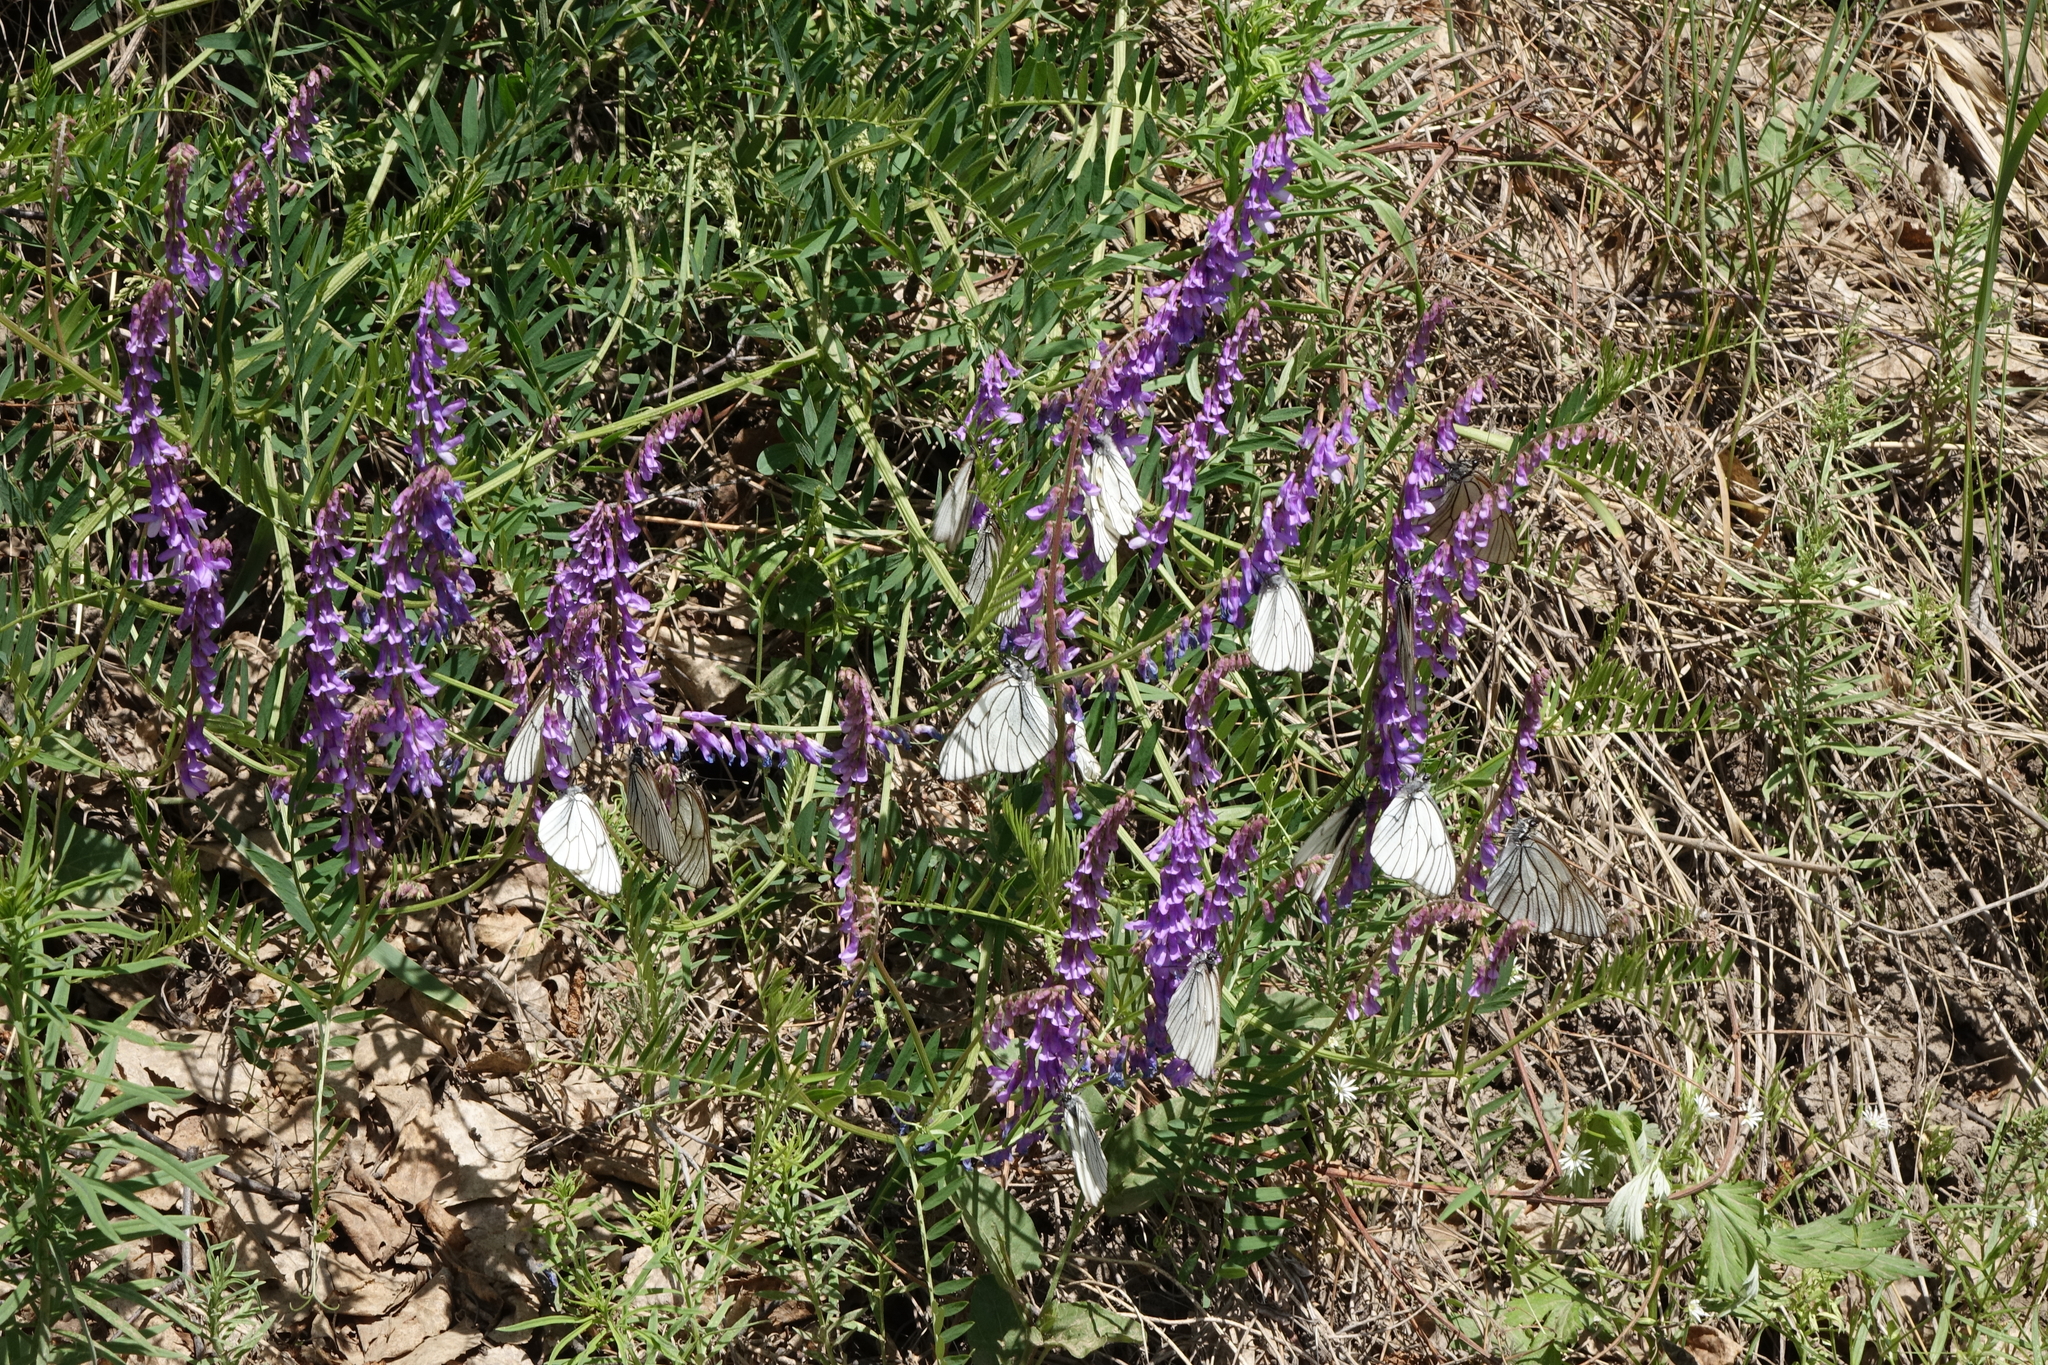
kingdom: Animalia
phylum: Arthropoda
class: Insecta
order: Lepidoptera
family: Pieridae
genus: Aporia
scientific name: Aporia crataegi
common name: Black-veined white
